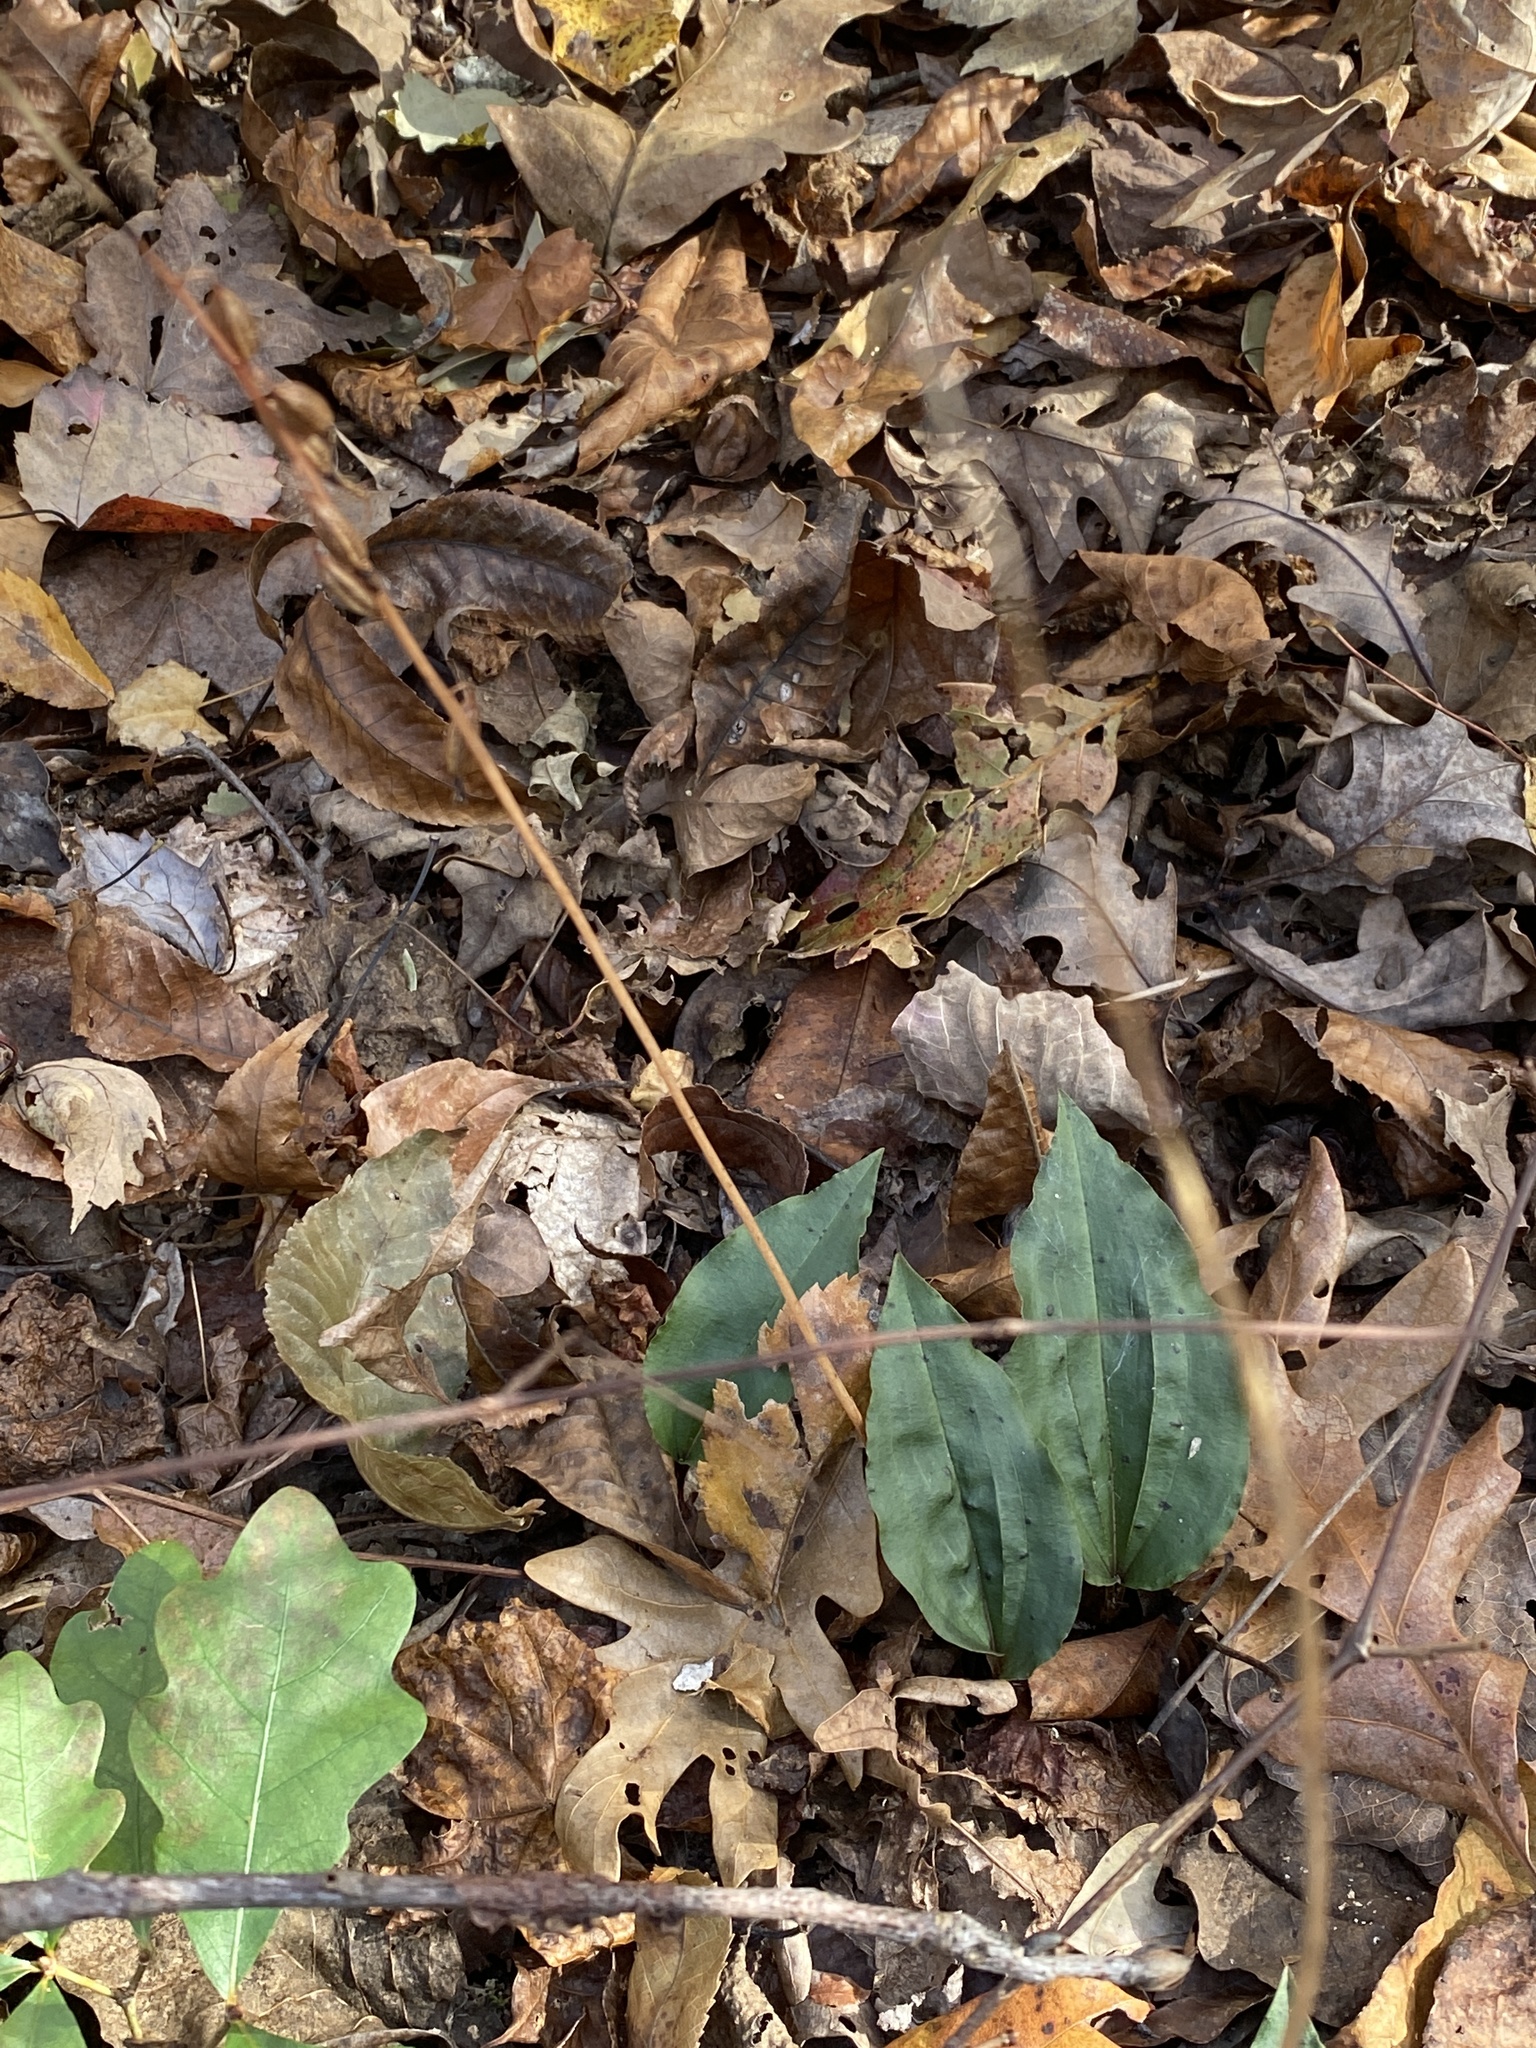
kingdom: Plantae
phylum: Tracheophyta
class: Liliopsida
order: Asparagales
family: Orchidaceae
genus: Tipularia
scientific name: Tipularia discolor
